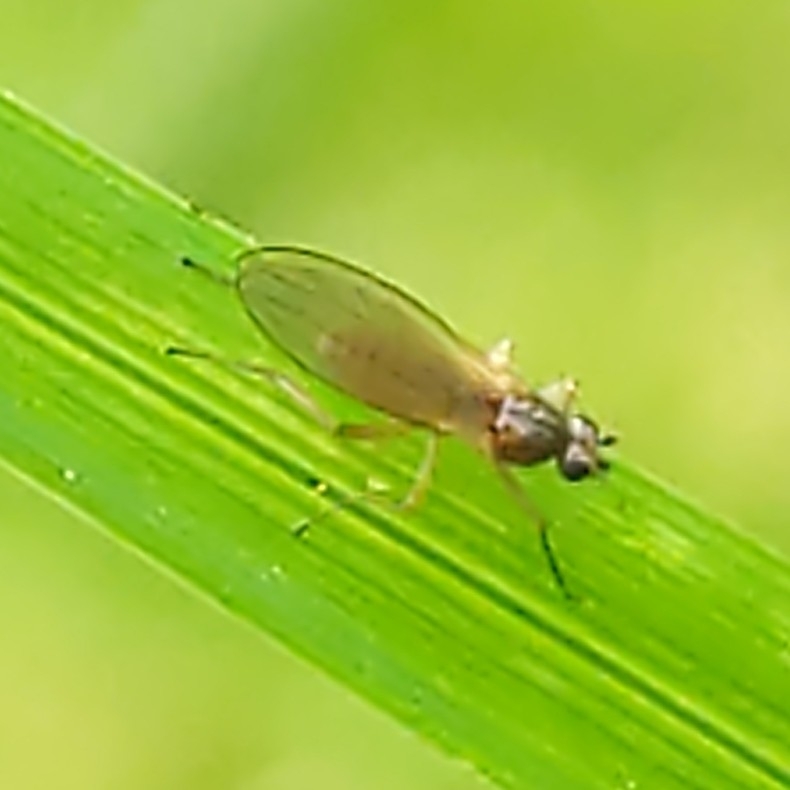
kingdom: Animalia
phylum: Arthropoda
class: Insecta
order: Diptera
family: Lonchopteridae
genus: Lonchoptera
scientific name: Lonchoptera
